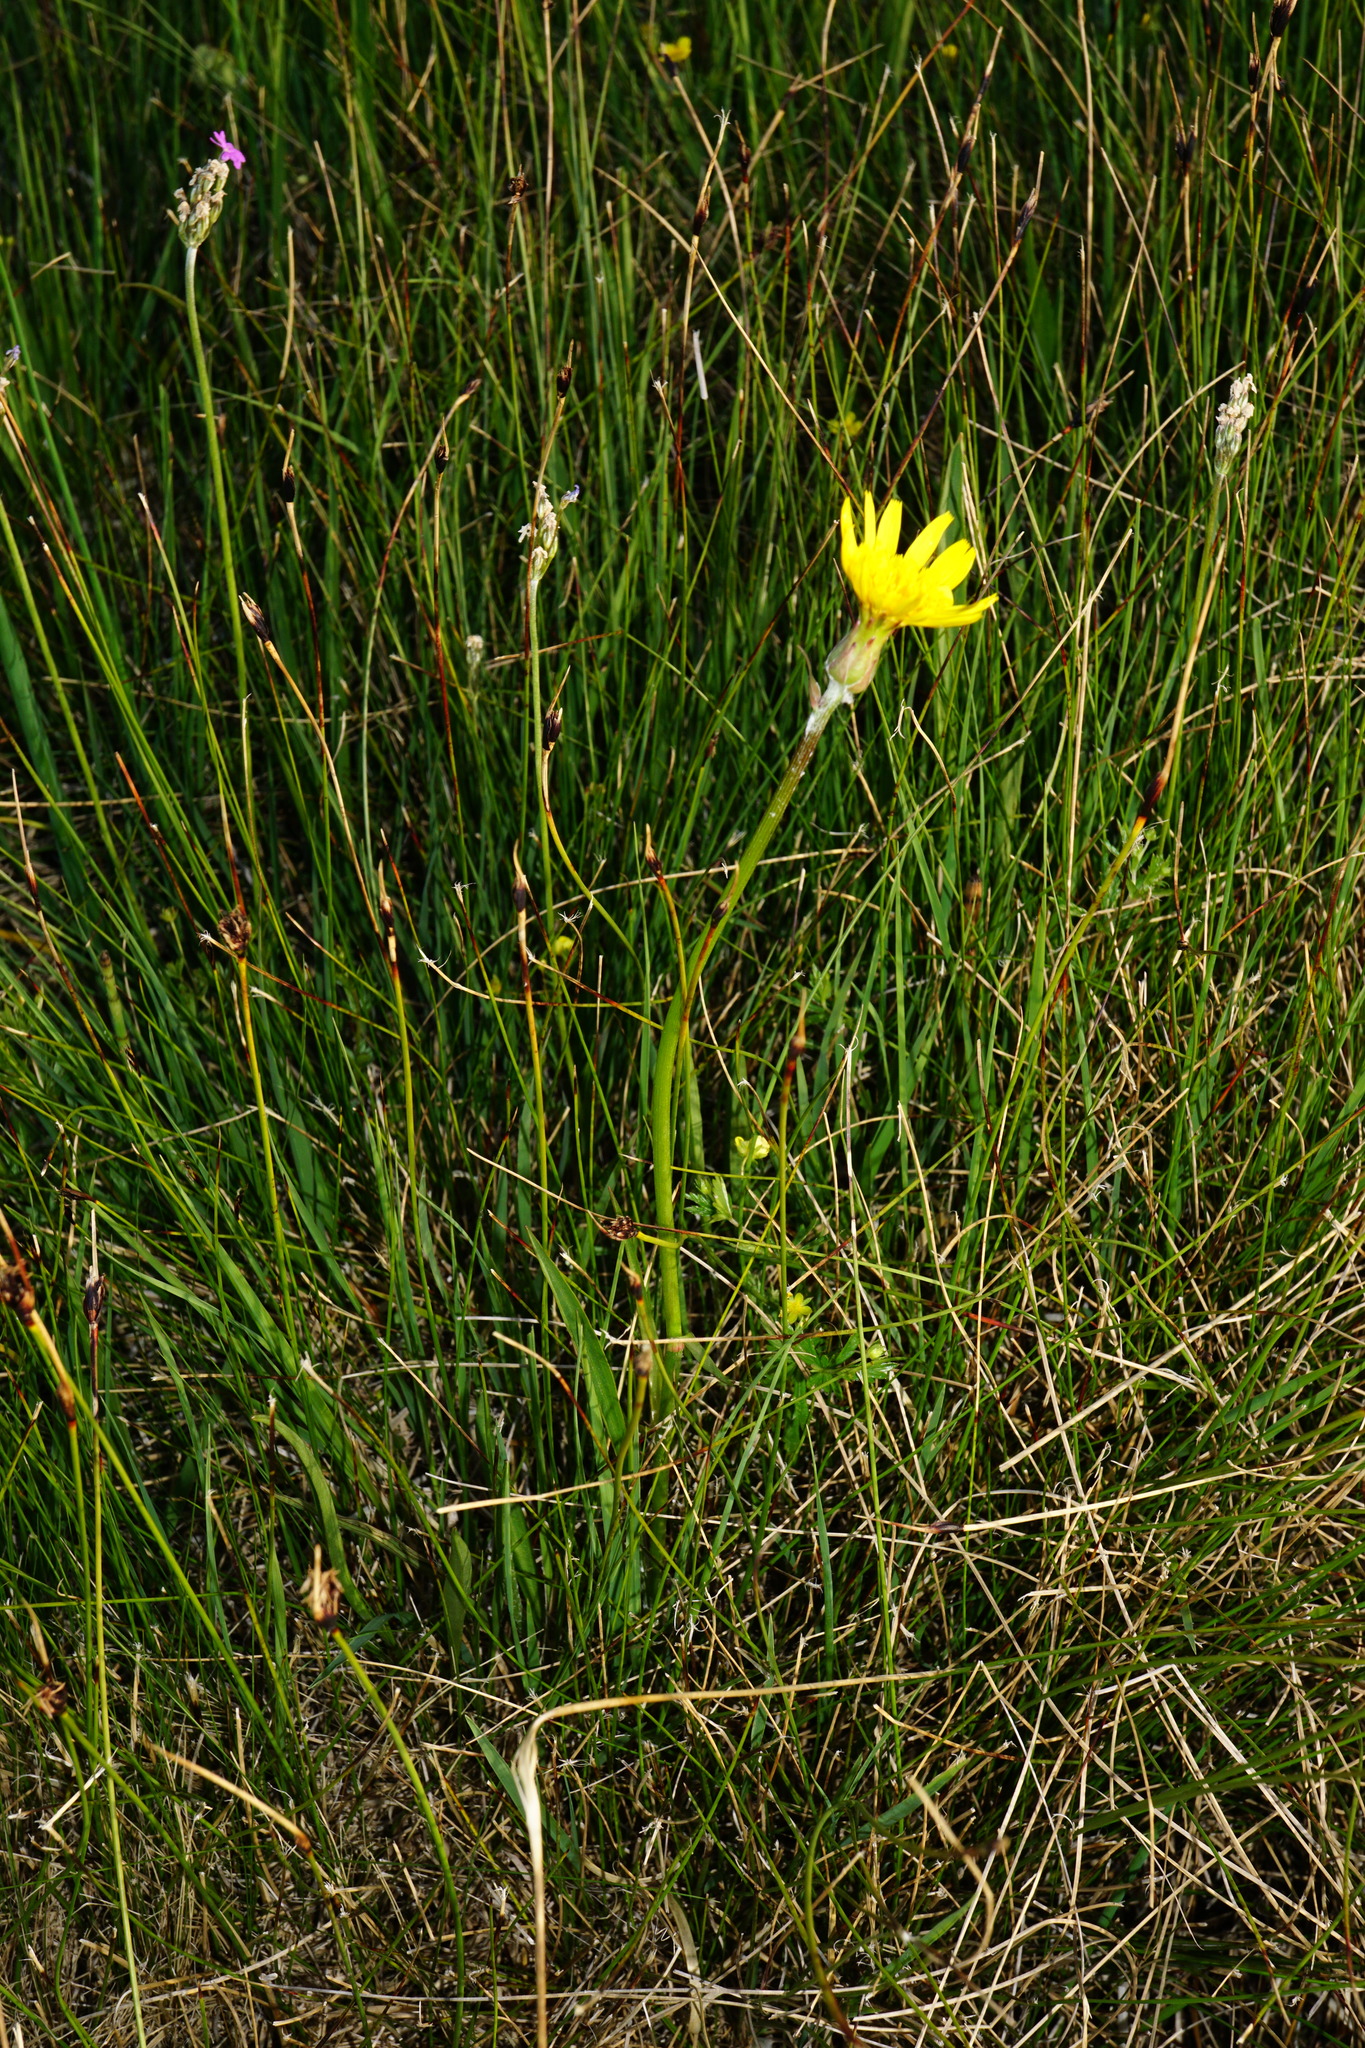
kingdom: Plantae
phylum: Tracheophyta
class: Magnoliopsida
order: Asterales
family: Asteraceae
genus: Scorzonera
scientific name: Scorzonera humilis
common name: Viper's-grass
